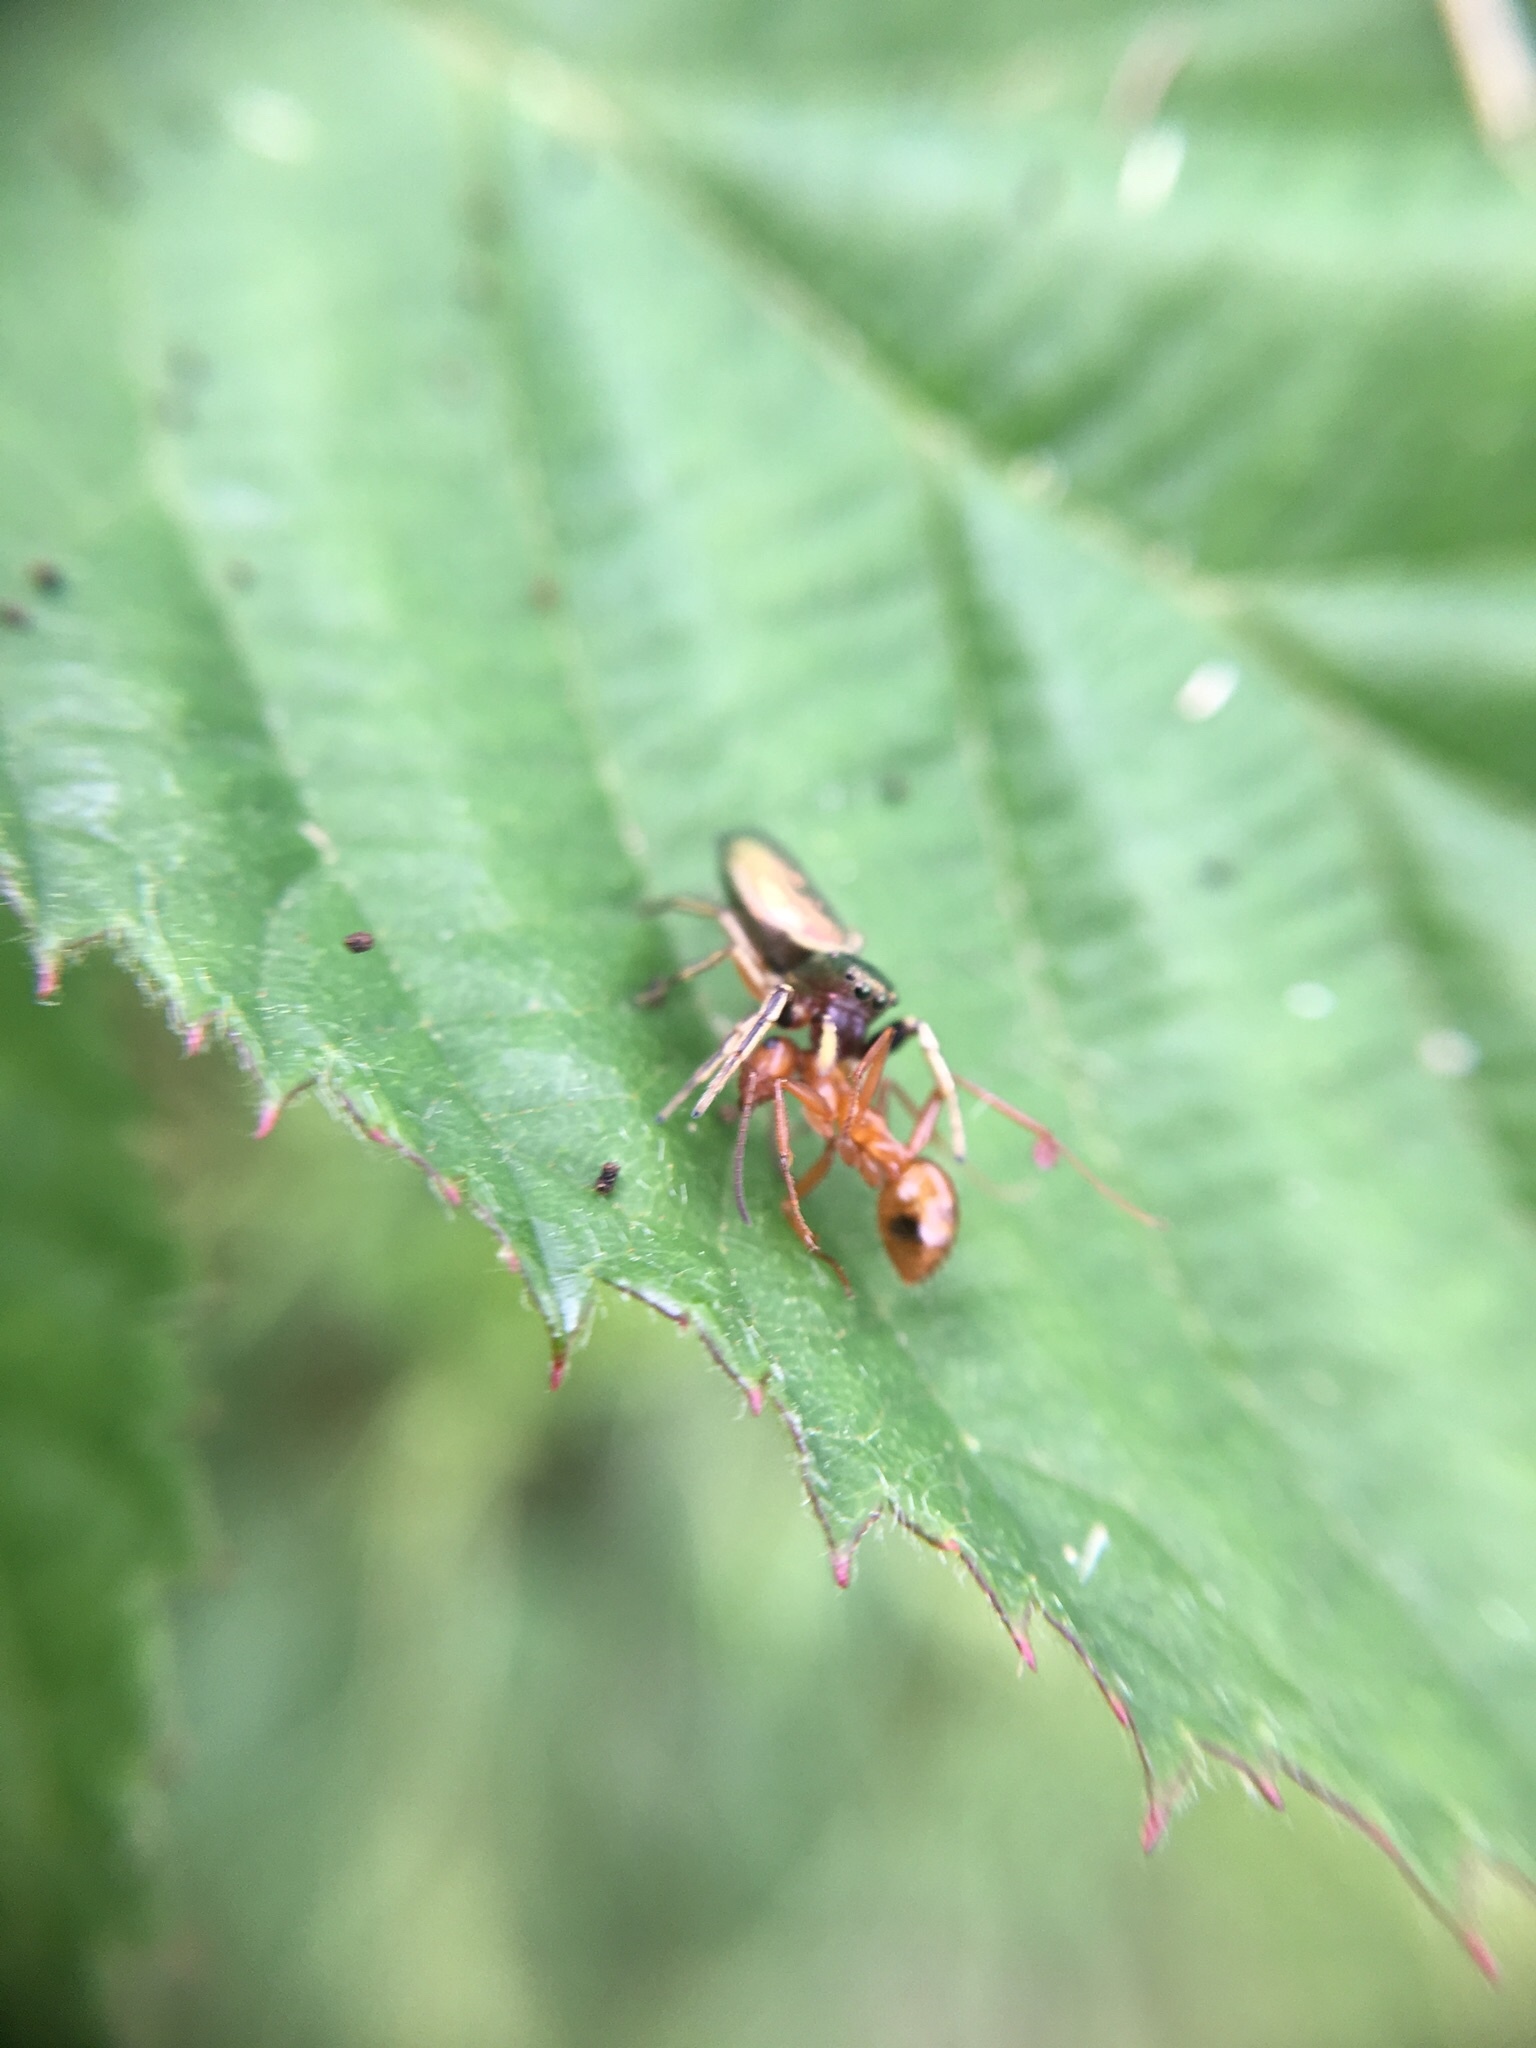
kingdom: Animalia
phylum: Arthropoda
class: Arachnida
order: Araneae
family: Salticidae
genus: Tutelina
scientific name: Tutelina elegans
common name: Thin-spined jumping spider
